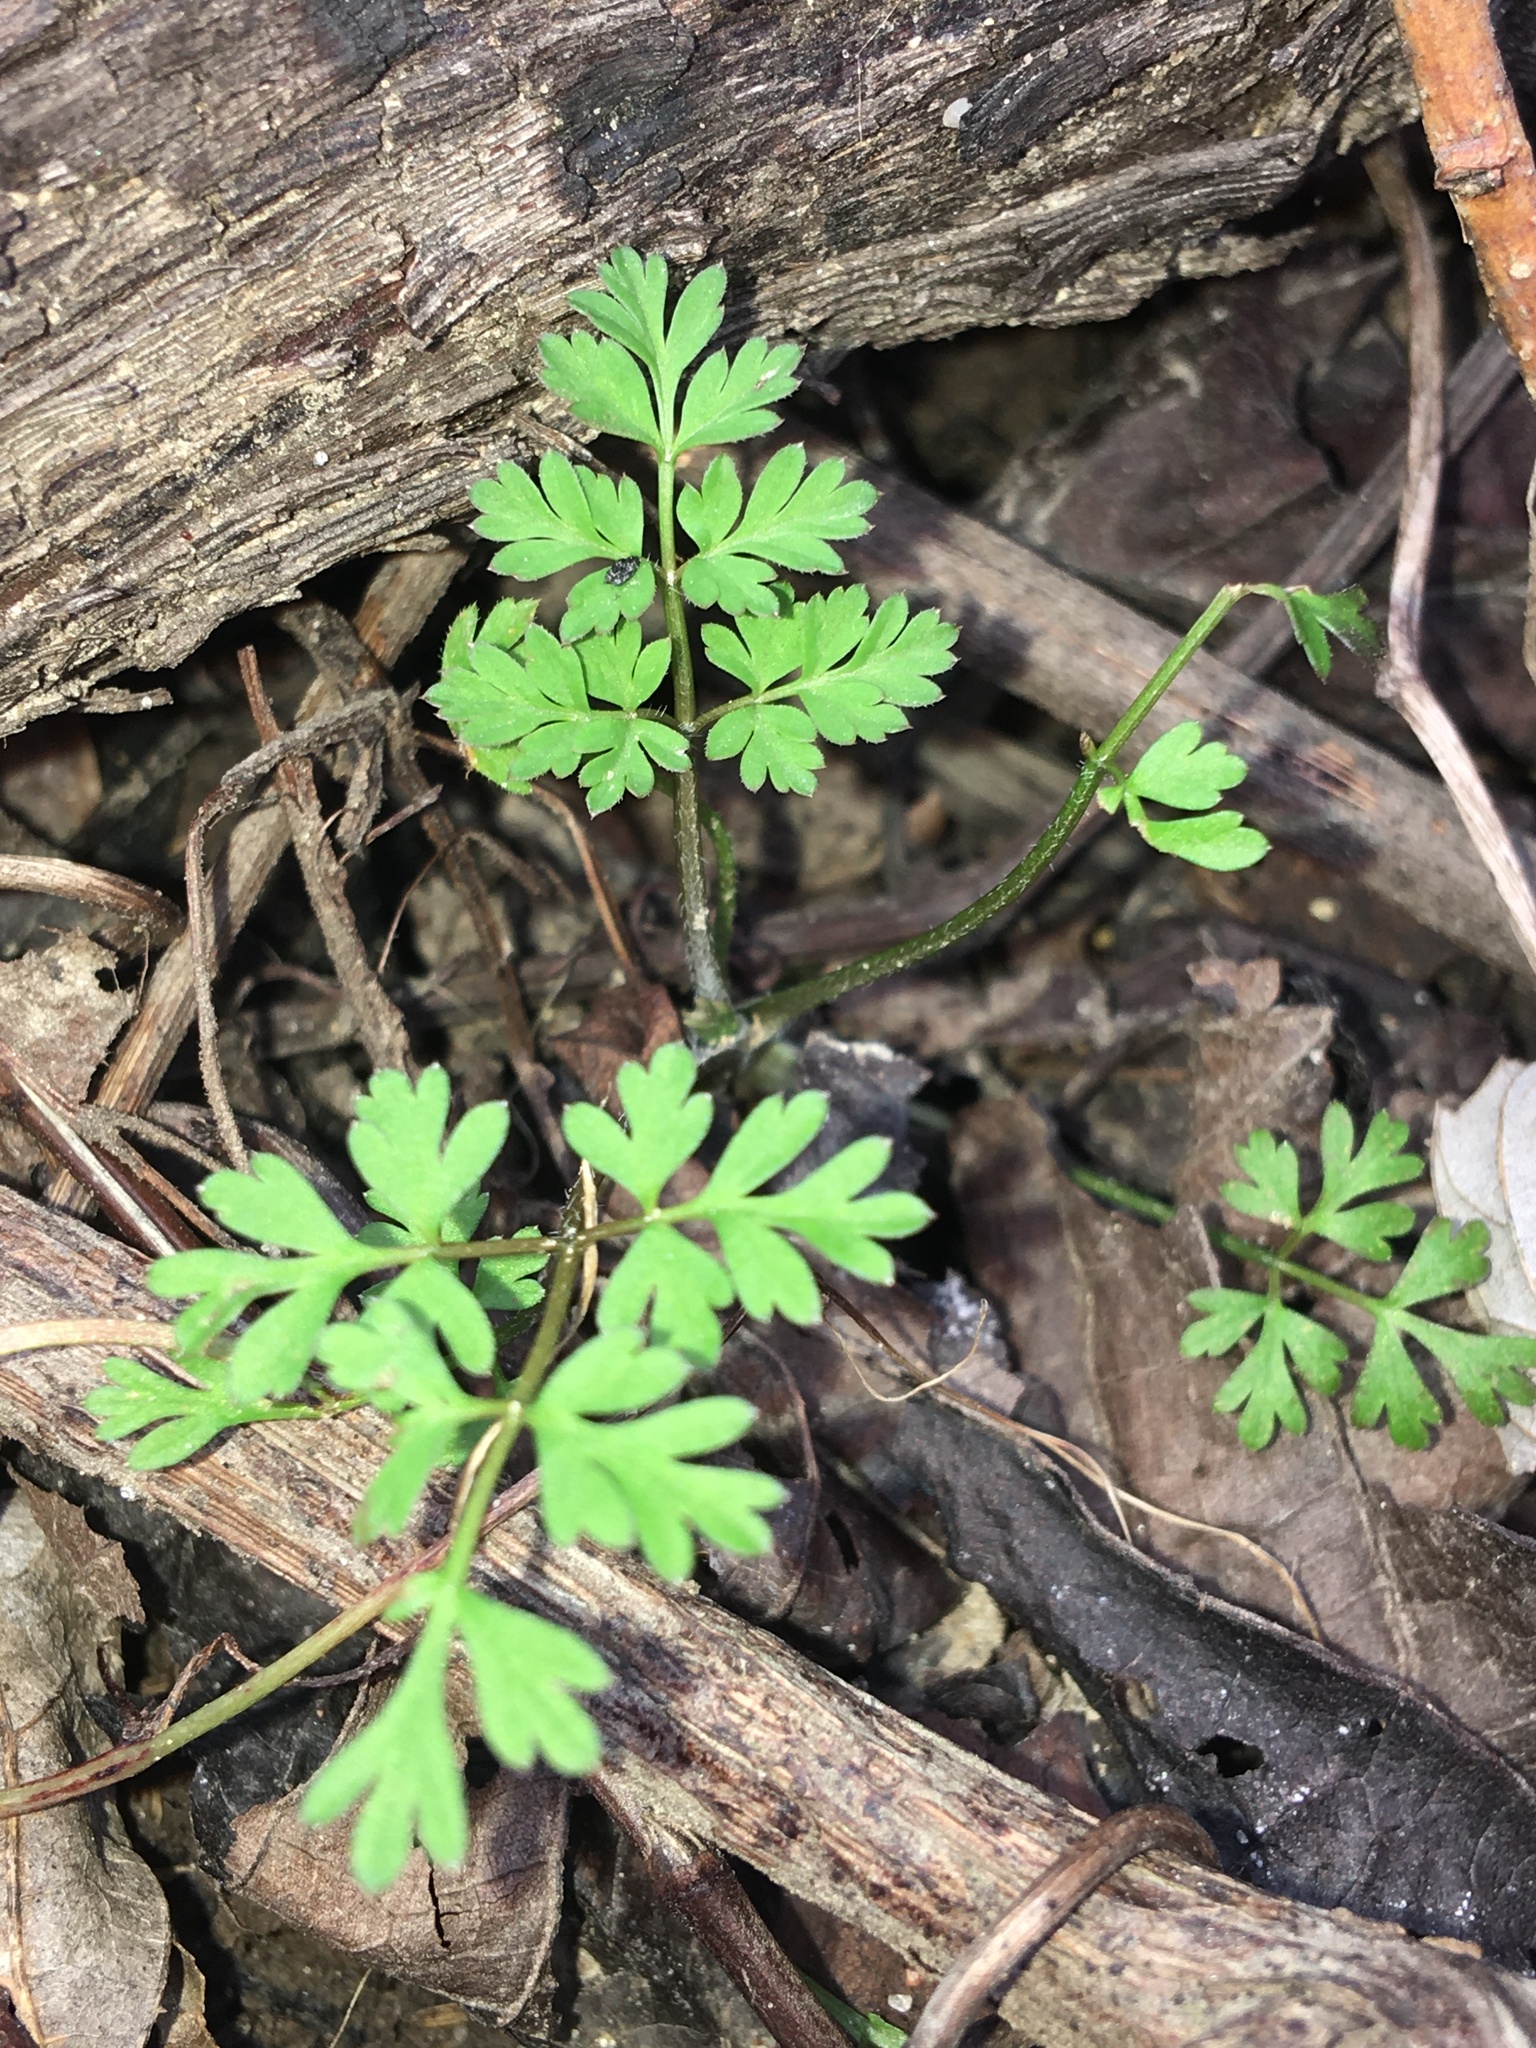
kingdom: Plantae
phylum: Tracheophyta
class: Magnoliopsida
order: Apiales
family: Apiaceae
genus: Chaerophyllum
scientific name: Chaerophyllum tainturieri
